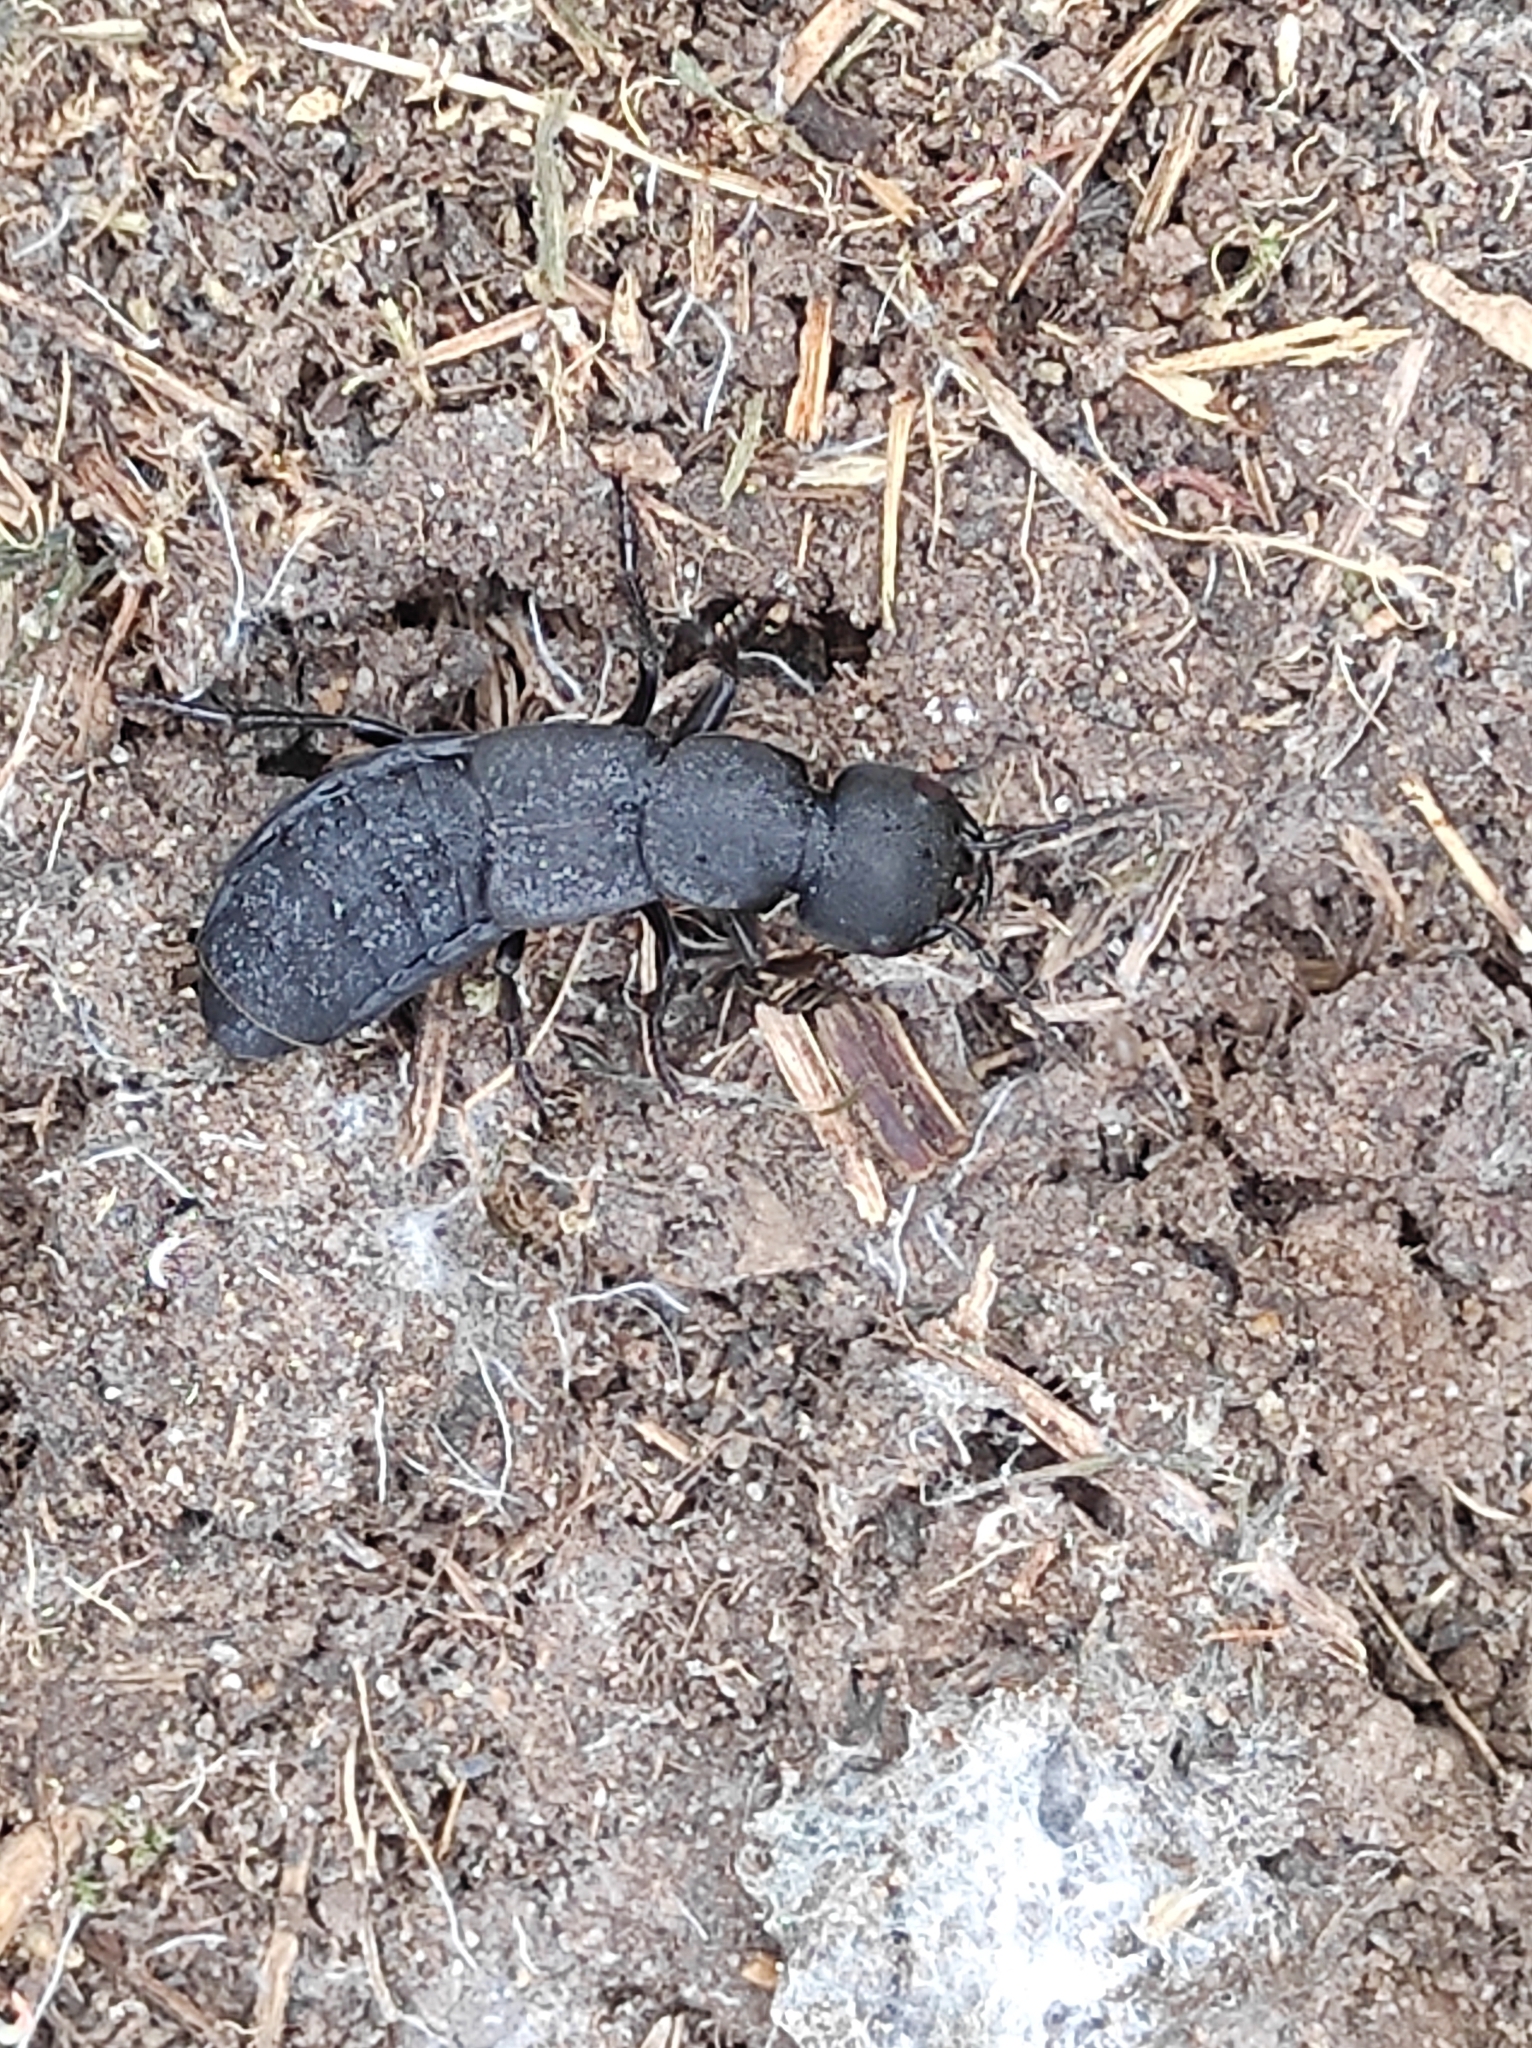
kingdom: Animalia
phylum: Arthropoda
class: Insecta
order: Coleoptera
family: Staphylinidae
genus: Ocypus
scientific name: Ocypus olens
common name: Devil's coach-horse
